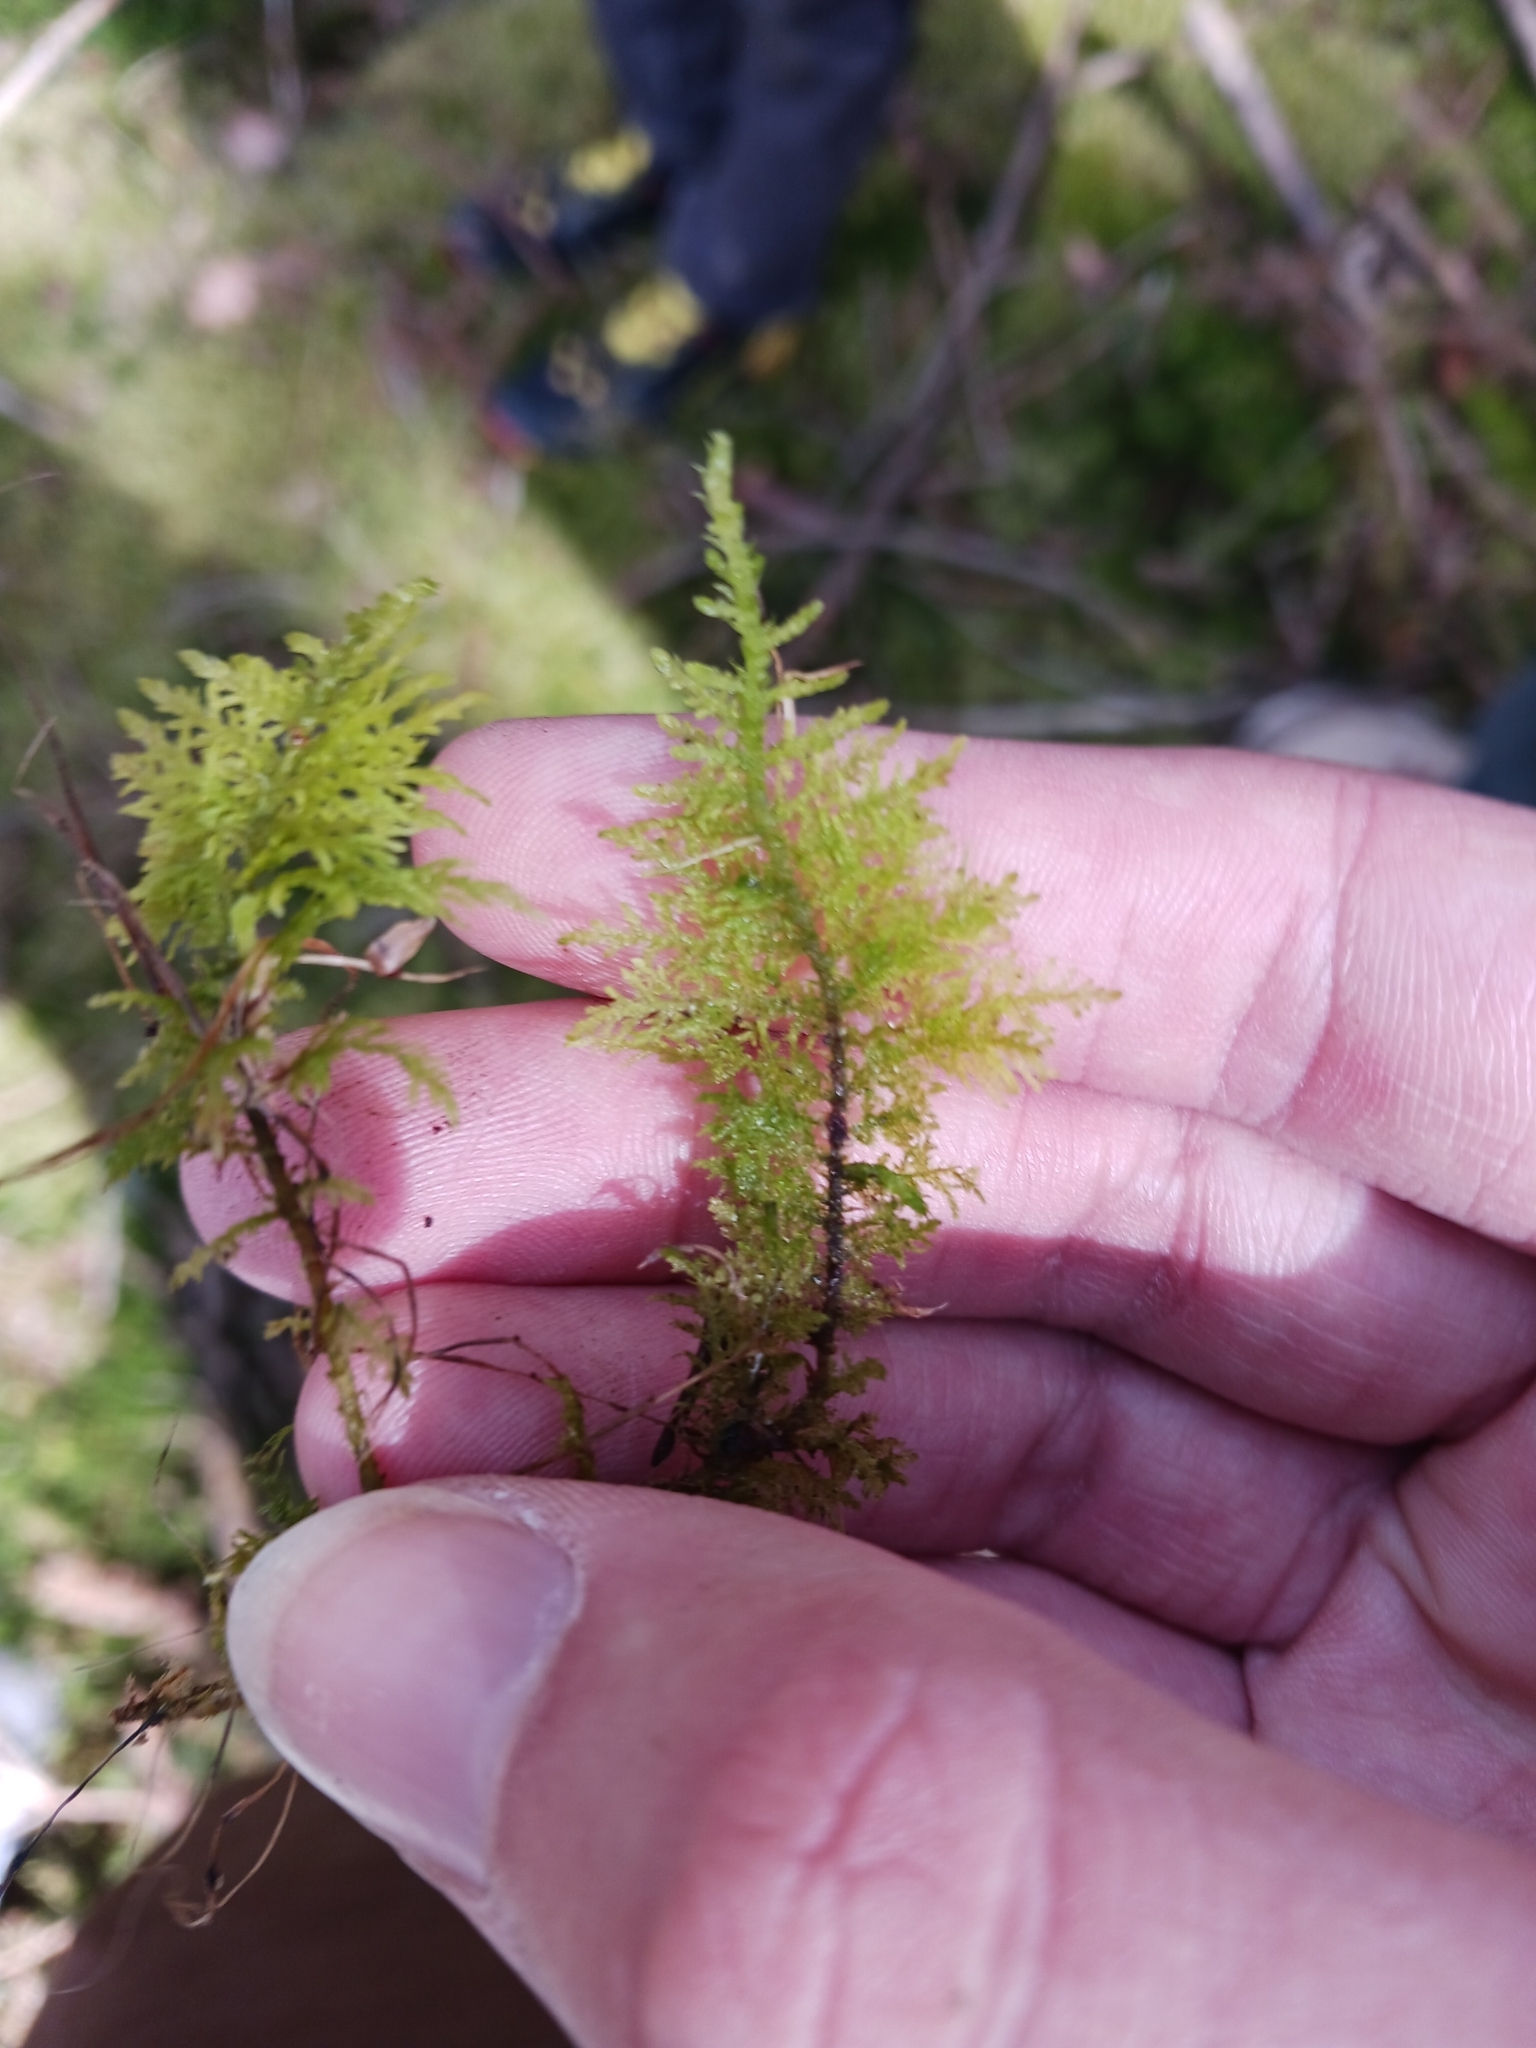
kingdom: Plantae
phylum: Bryophyta
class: Bryopsida
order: Hypnales
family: Thuidiaceae
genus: Thuidium
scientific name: Thuidium tamariscinum
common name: Common tamarisk-moss
